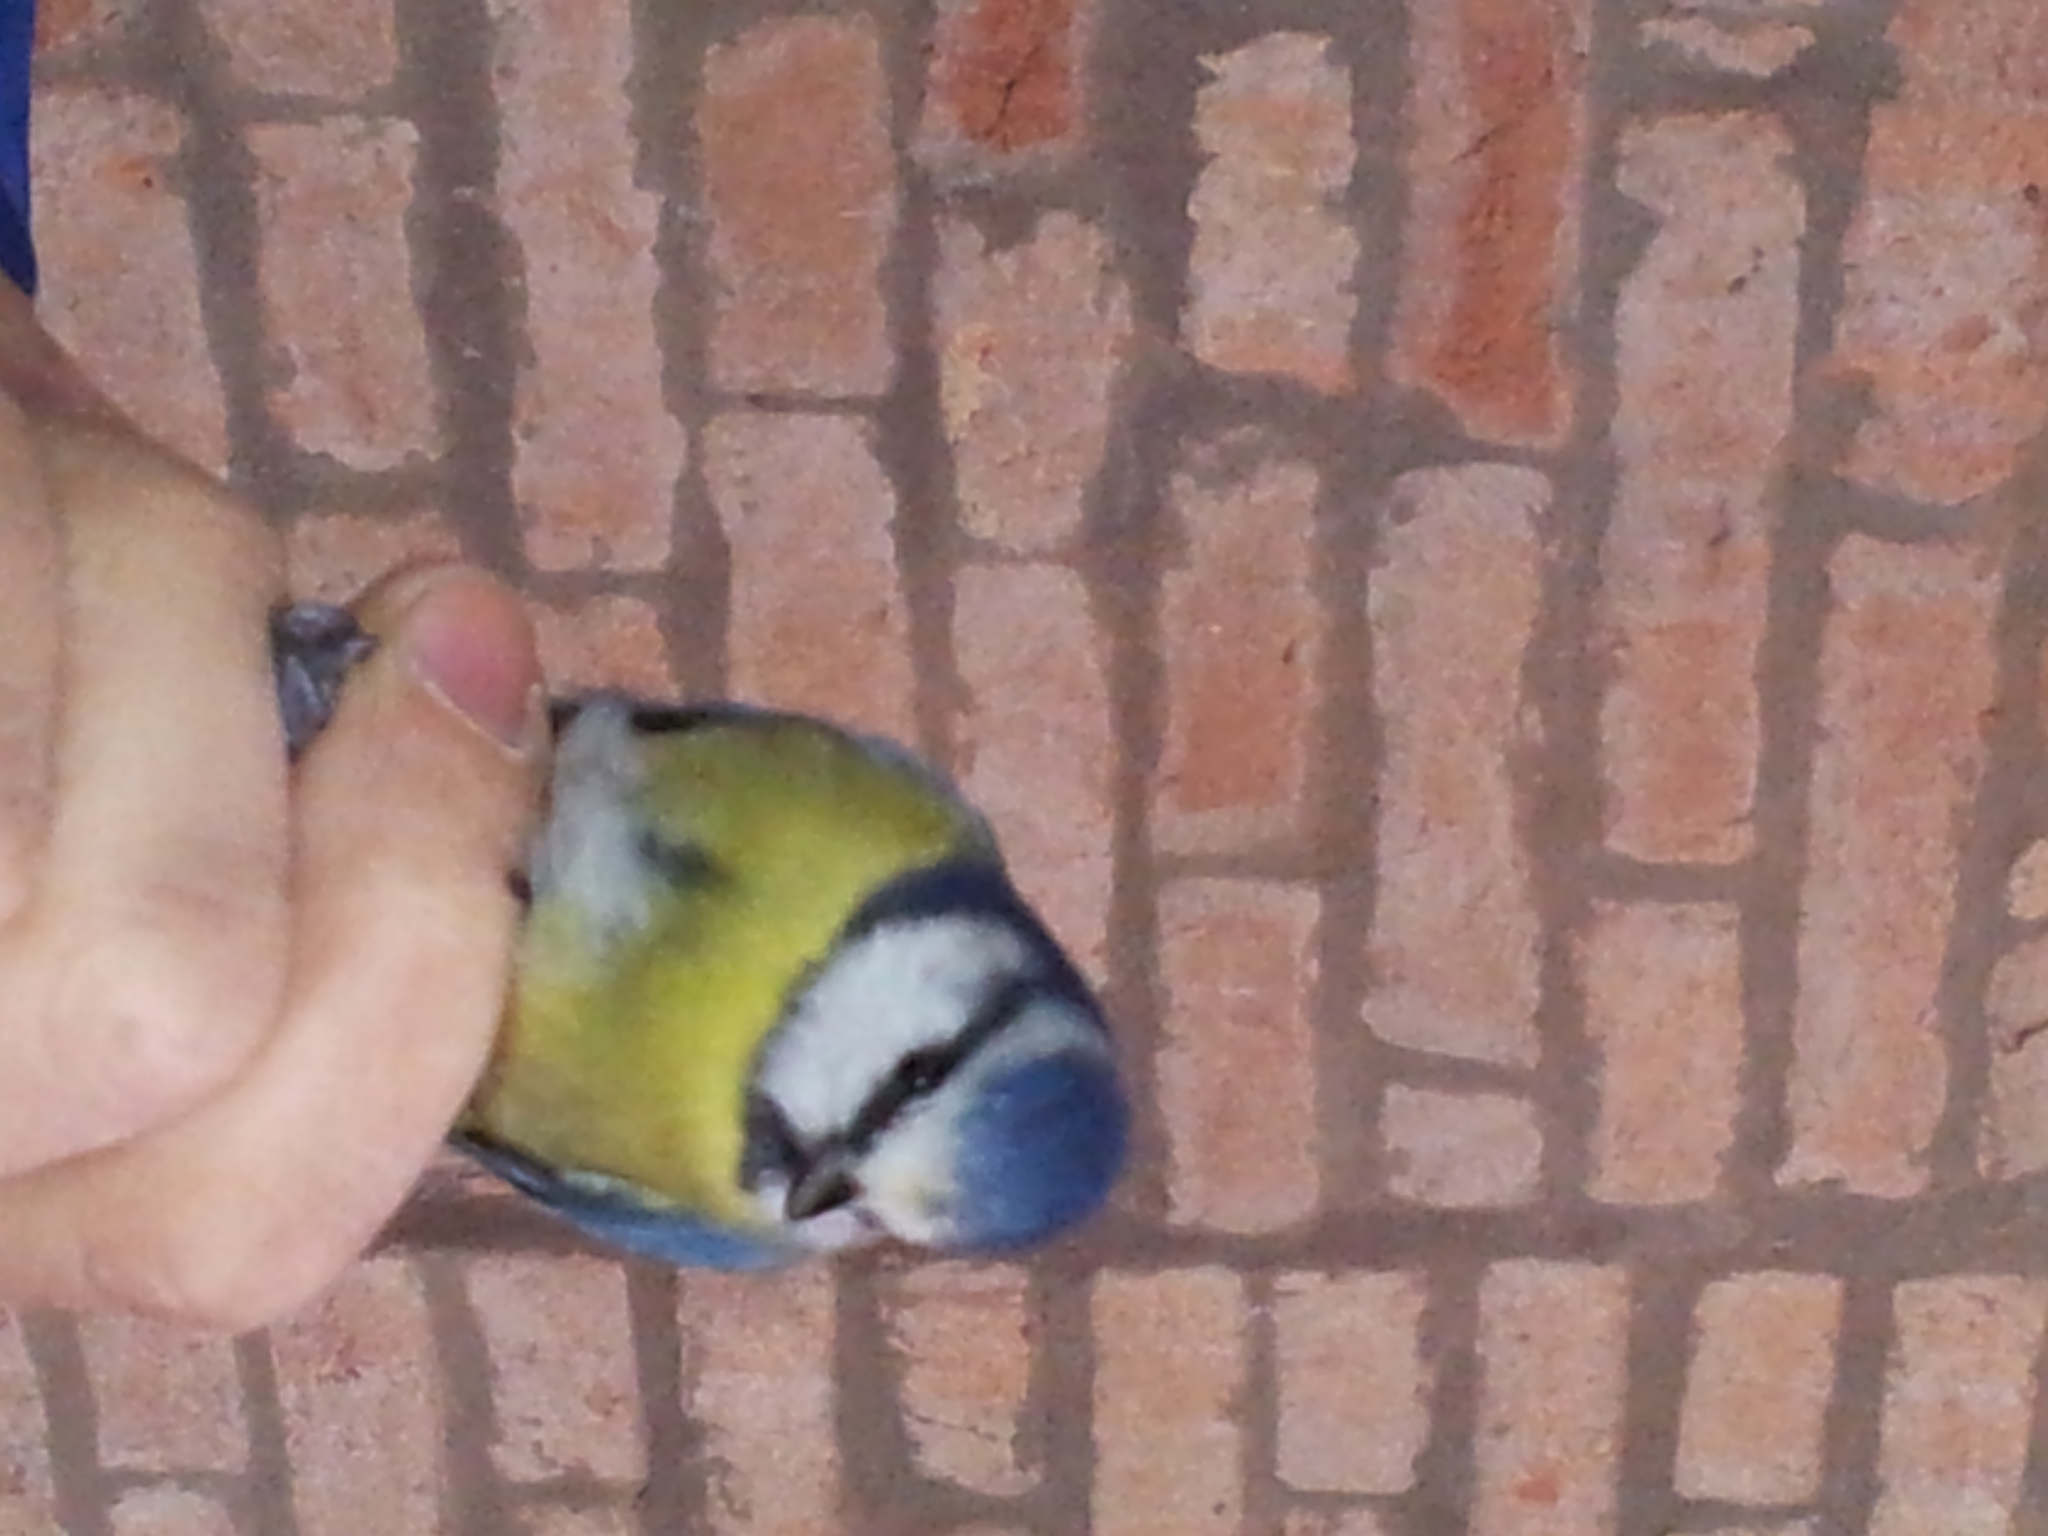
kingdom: Animalia
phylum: Chordata
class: Aves
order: Passeriformes
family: Paridae
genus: Cyanistes
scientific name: Cyanistes caeruleus
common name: Eurasian blue tit
